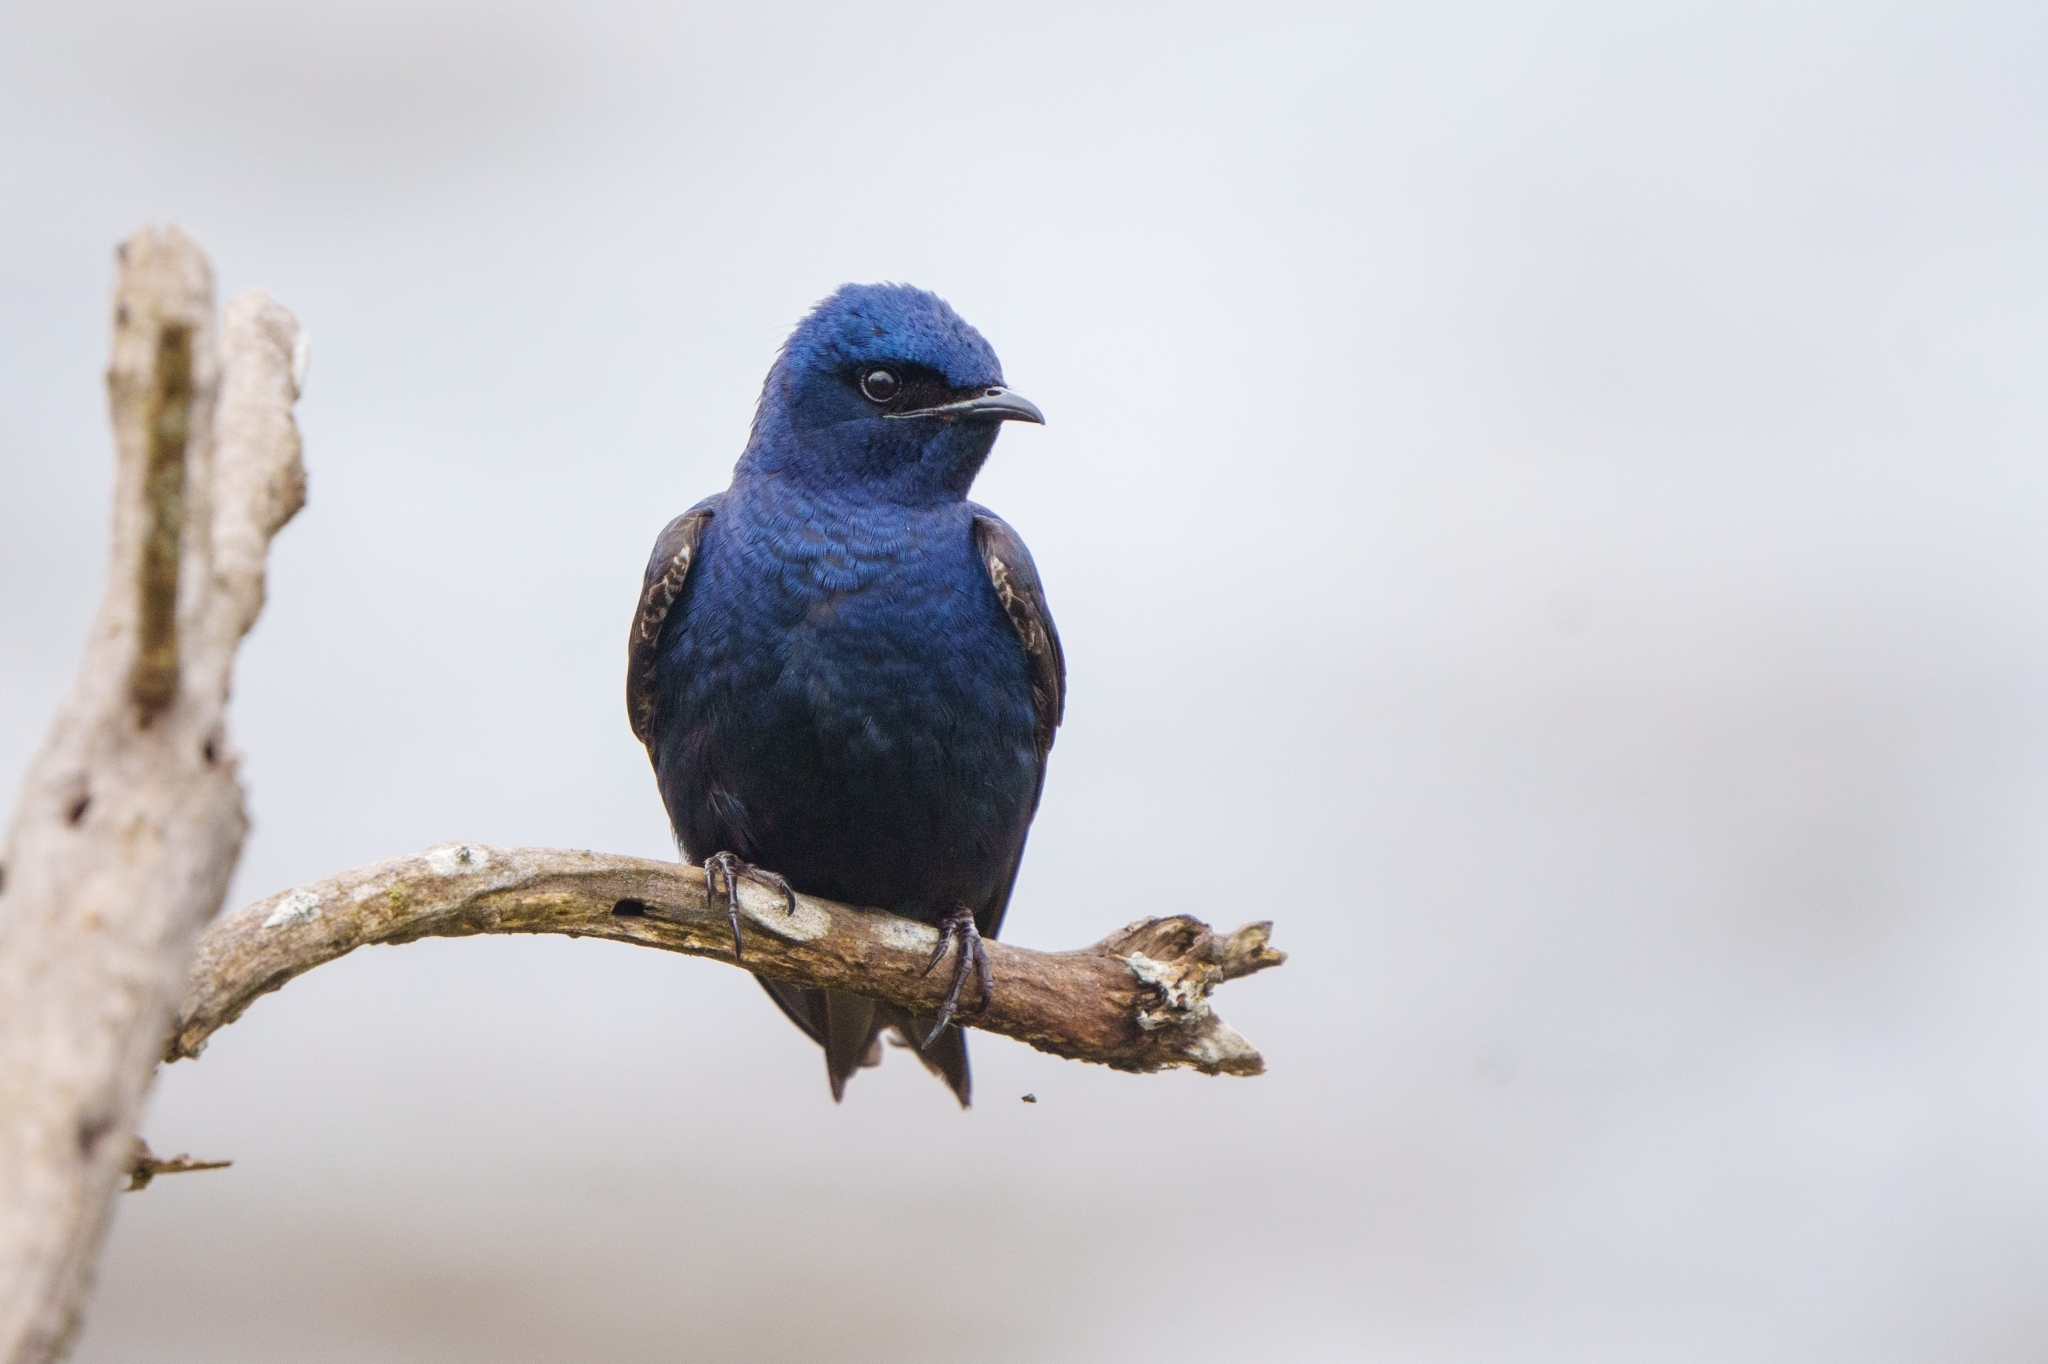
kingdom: Animalia
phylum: Chordata
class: Aves
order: Passeriformes
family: Hirundinidae
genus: Progne
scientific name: Progne subis
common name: Purple martin
